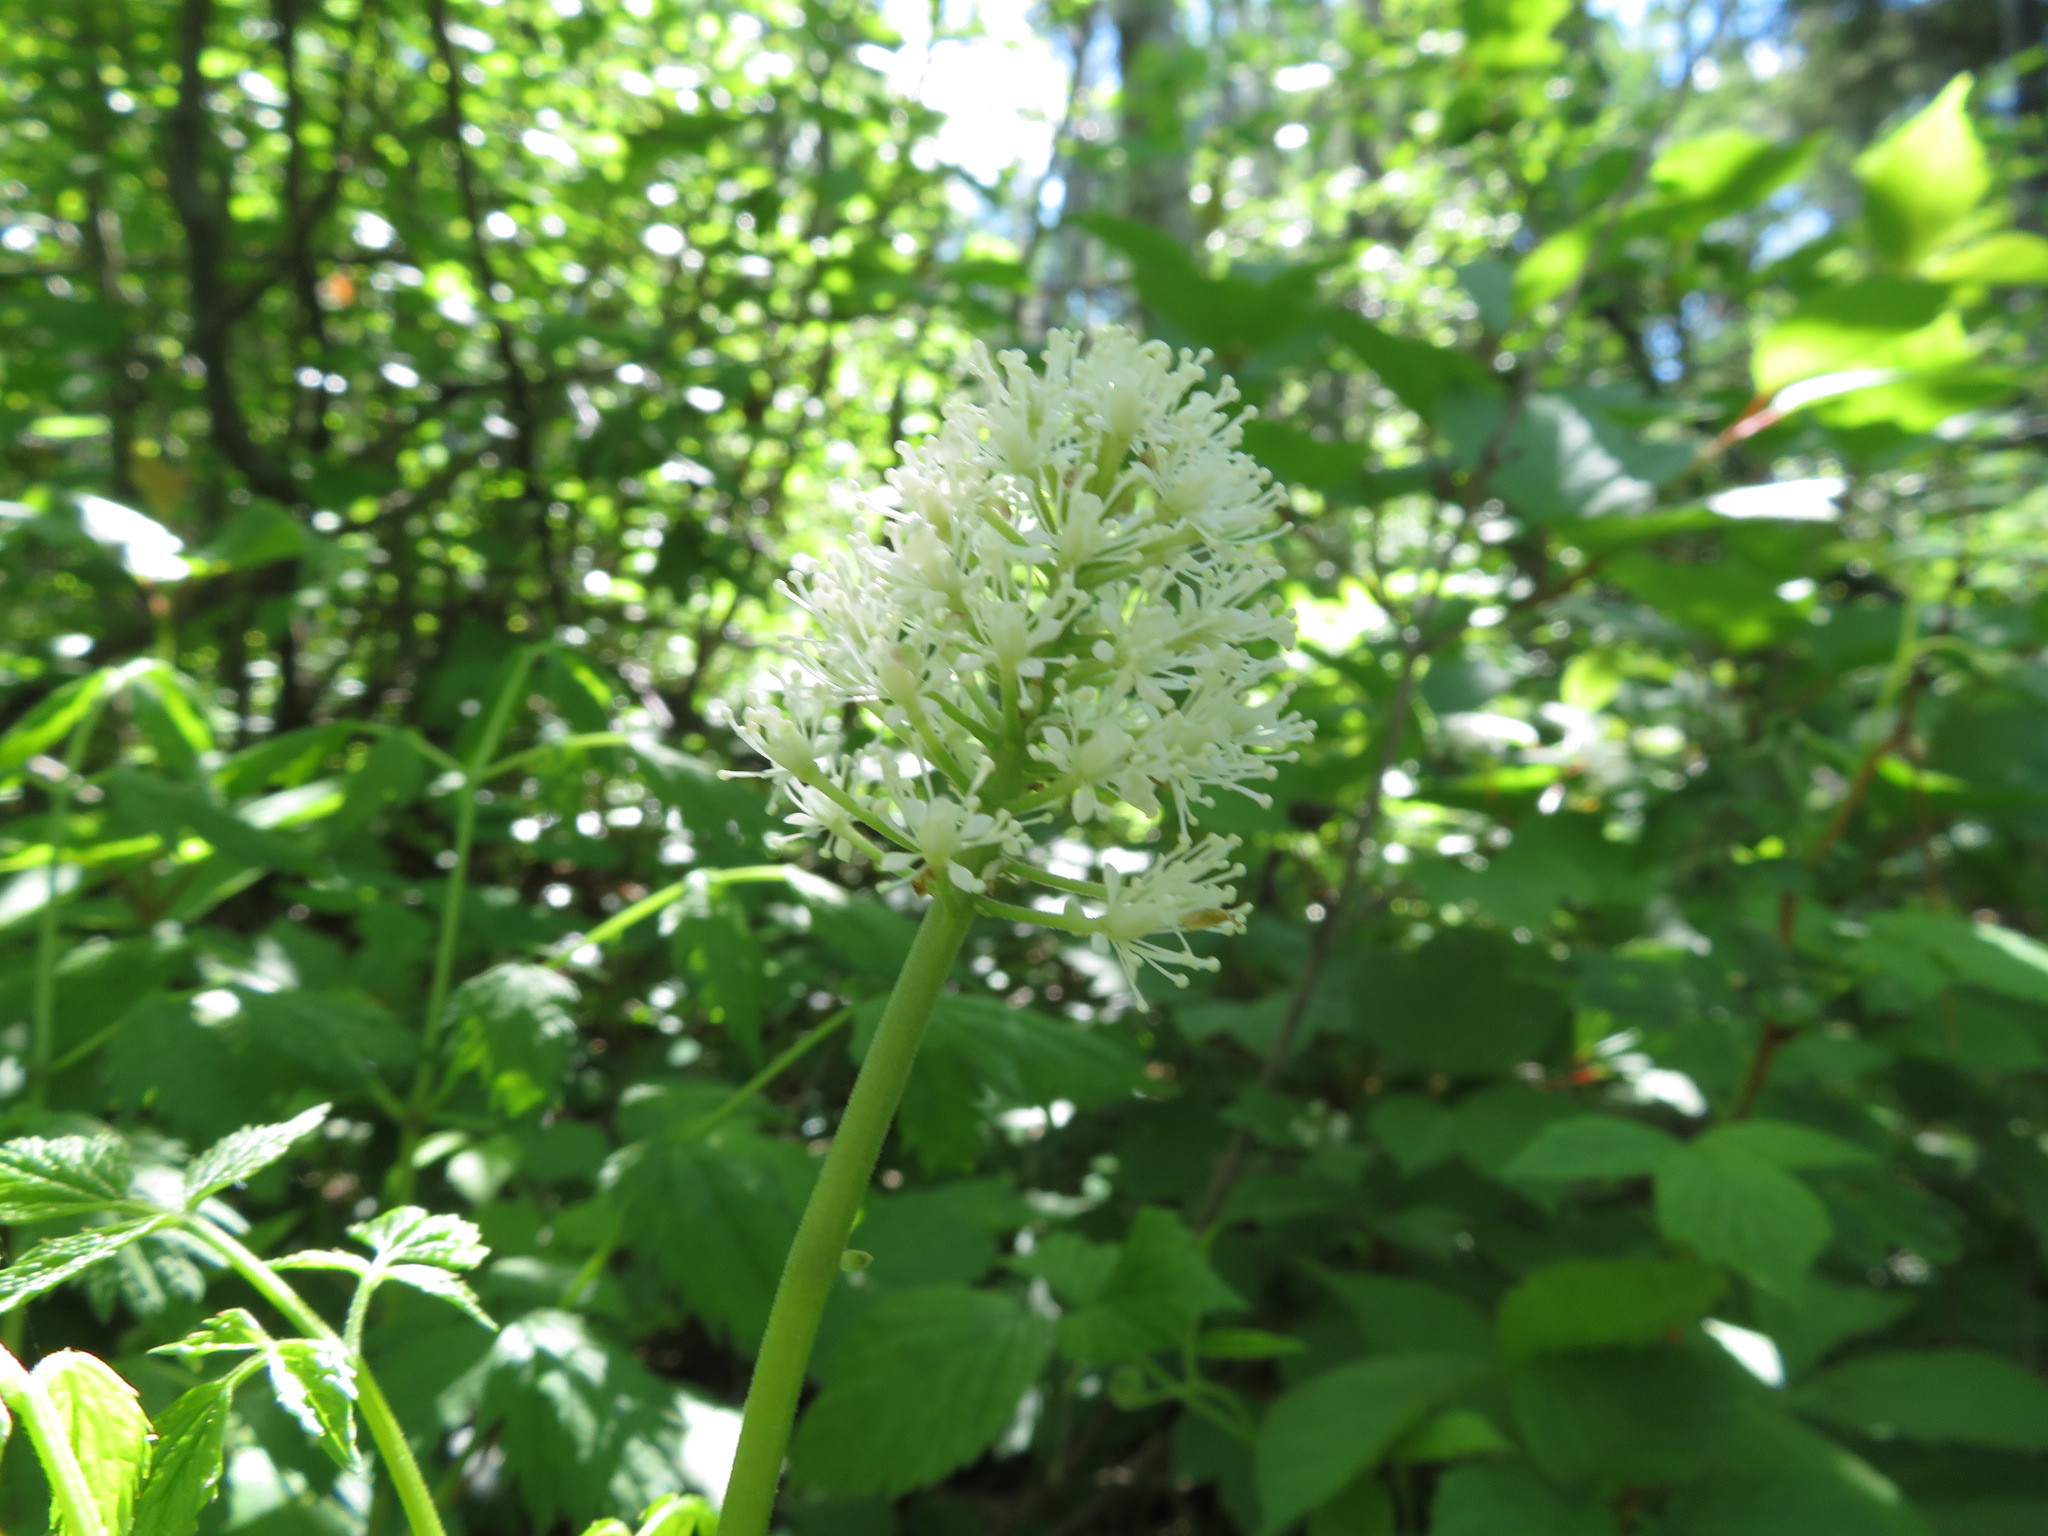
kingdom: Plantae
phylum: Tracheophyta
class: Magnoliopsida
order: Ranunculales
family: Ranunculaceae
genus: Actaea
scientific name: Actaea rubra
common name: Red baneberry
